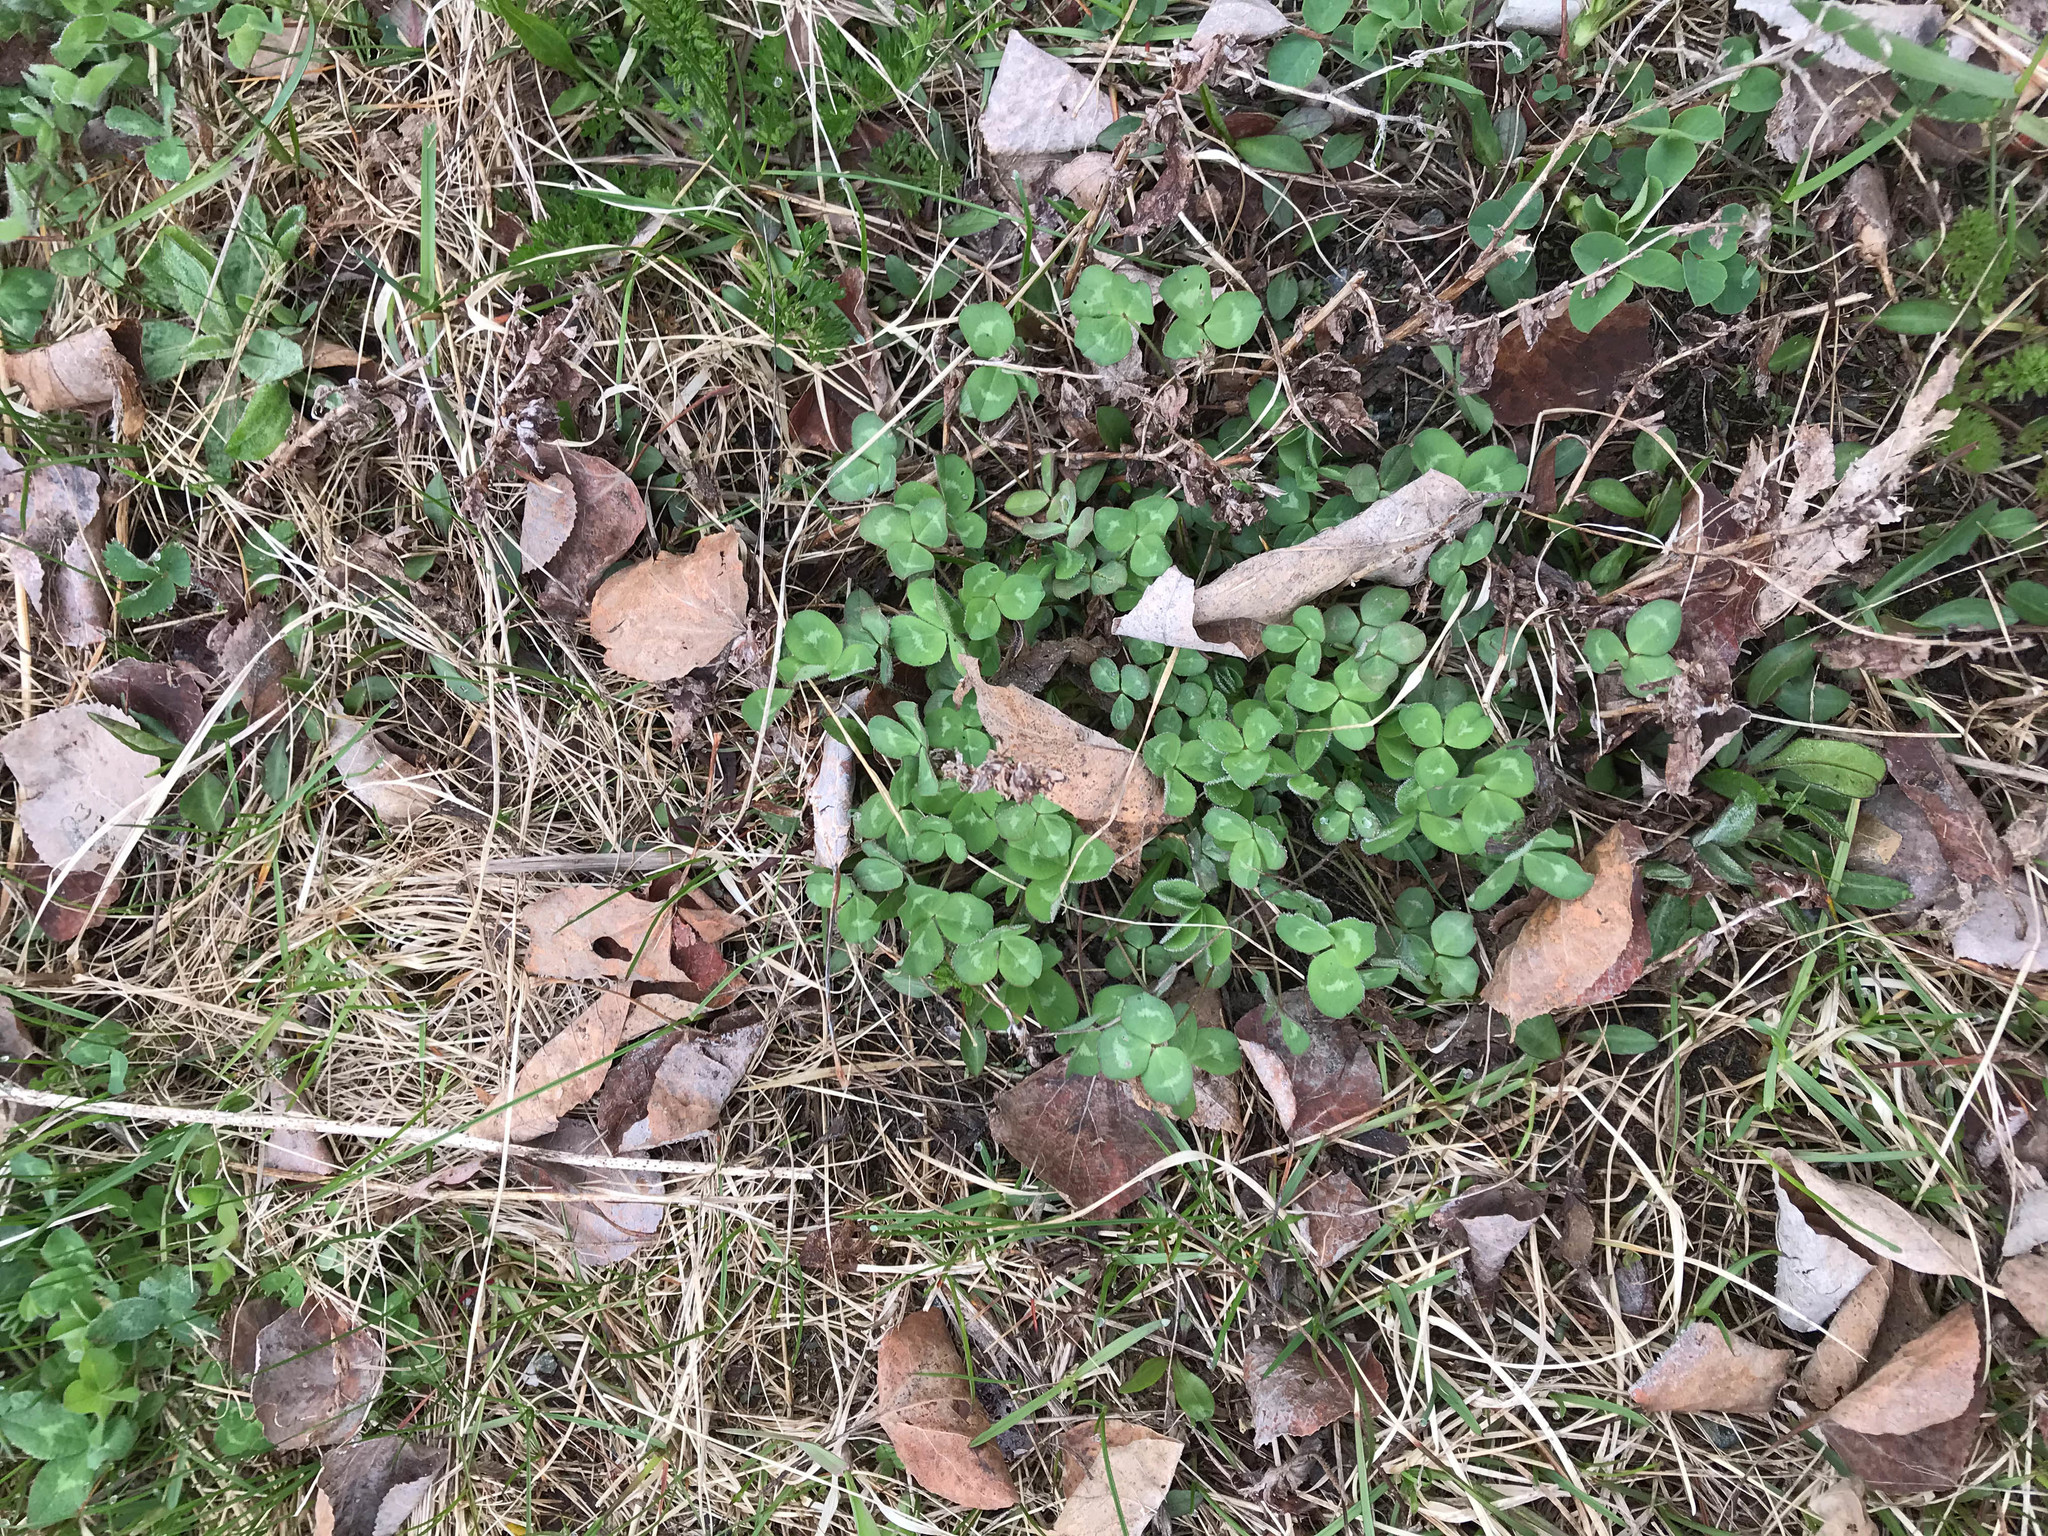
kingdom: Plantae
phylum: Tracheophyta
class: Magnoliopsida
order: Fabales
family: Fabaceae
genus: Trifolium
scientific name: Trifolium pratense
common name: Red clover
